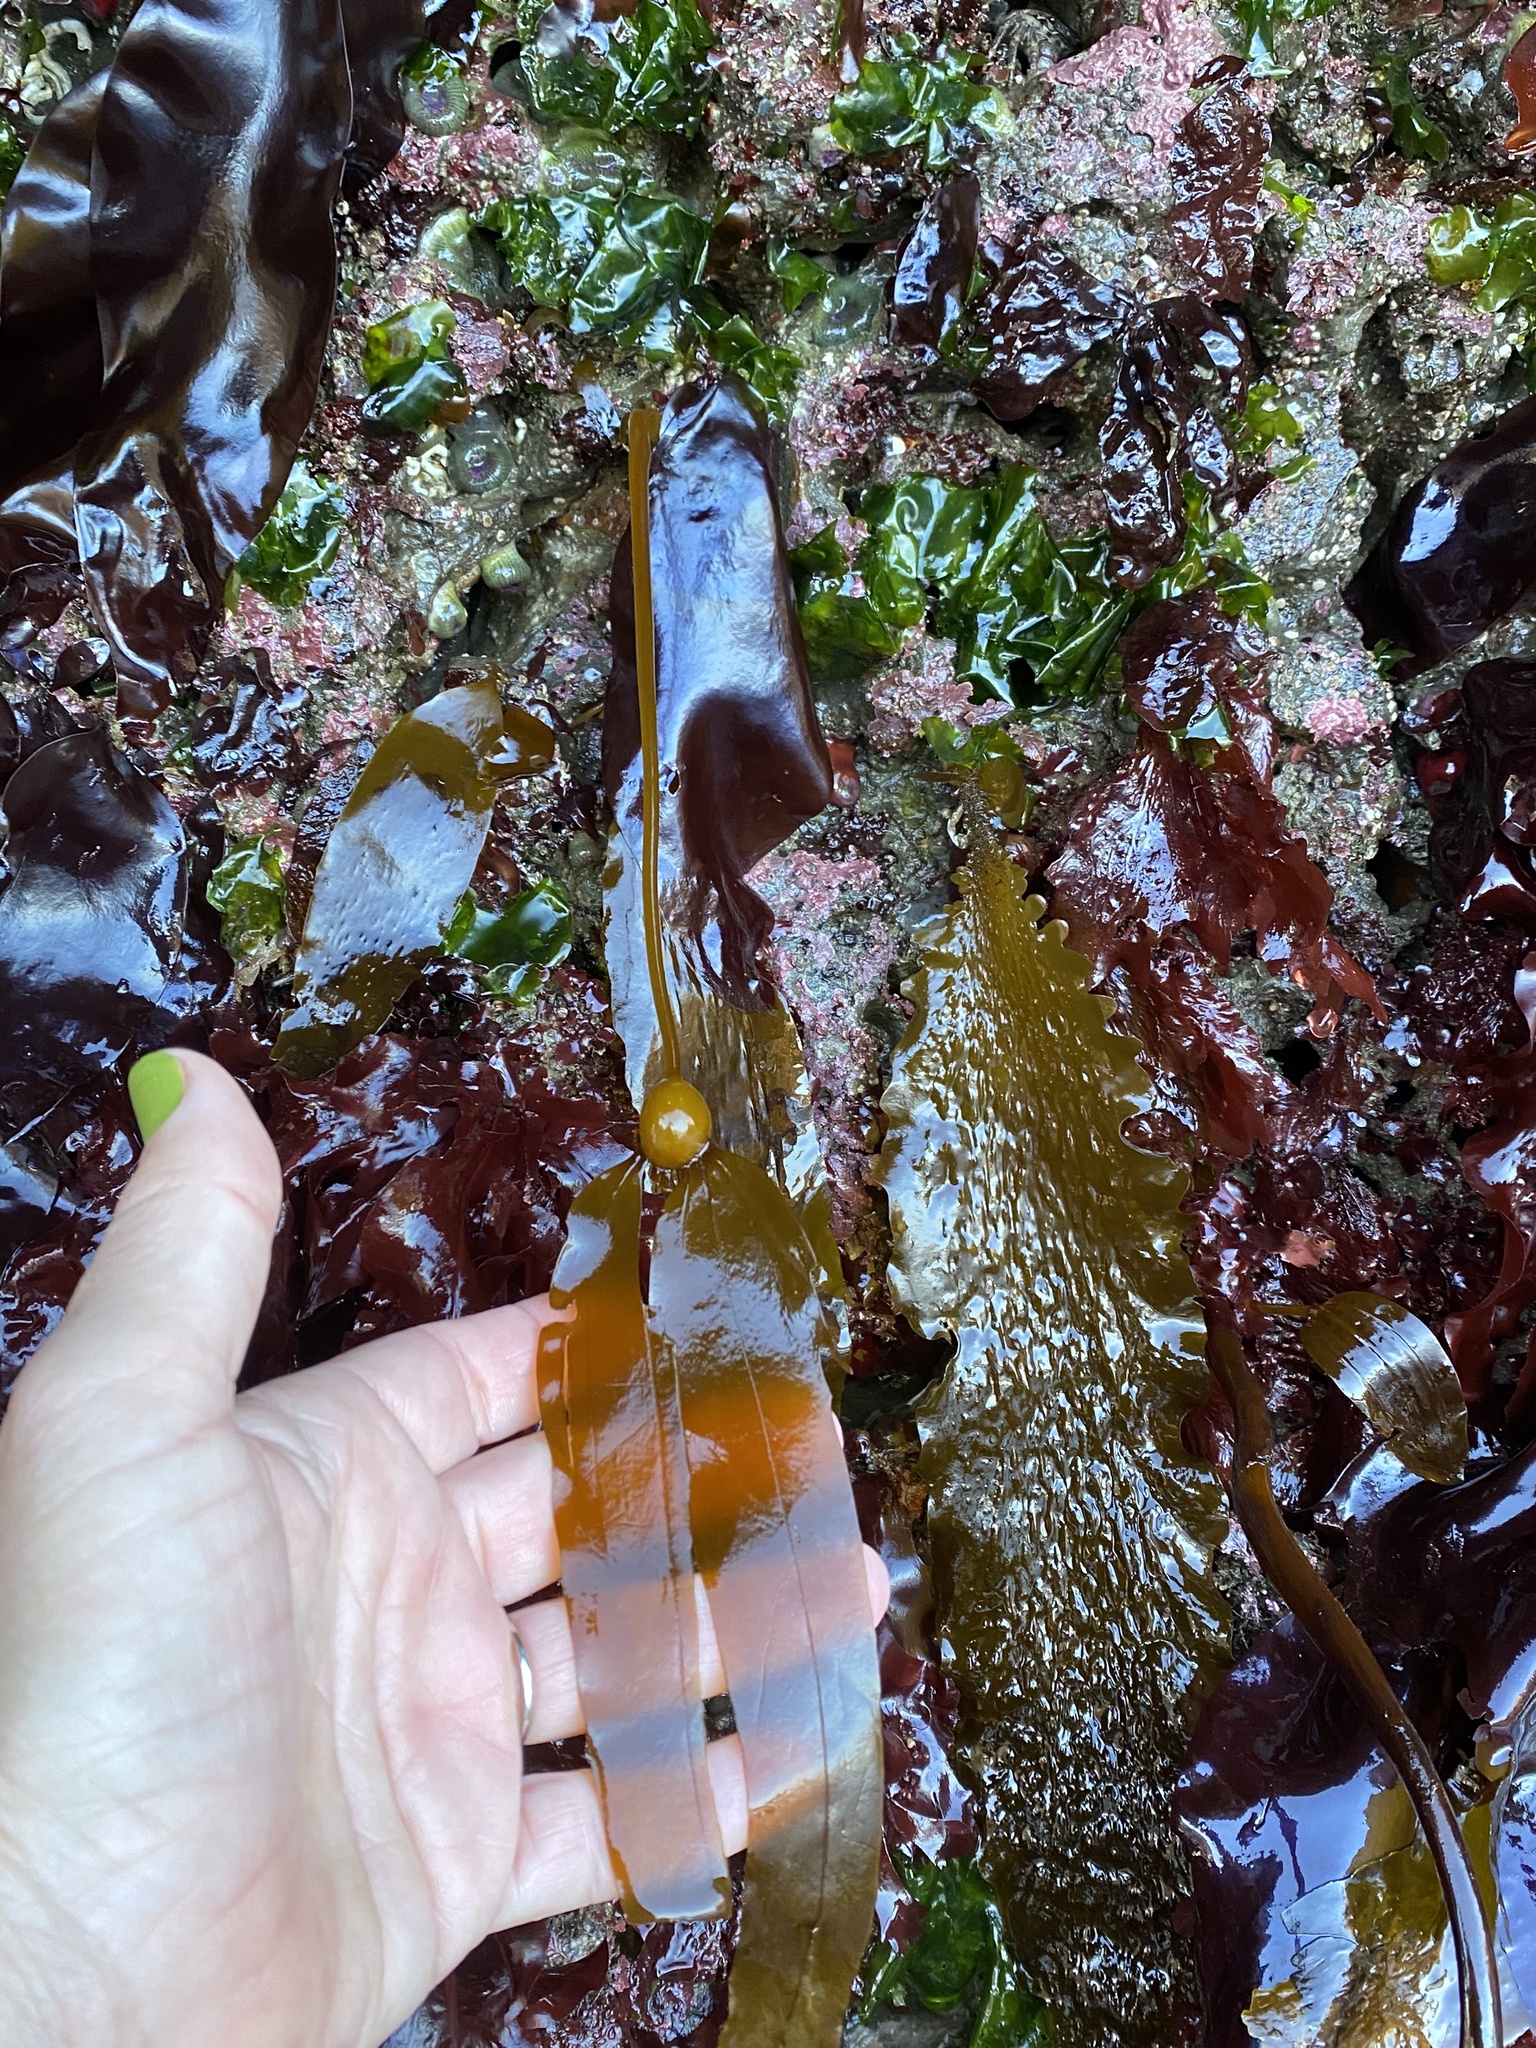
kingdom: Chromista
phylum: Ochrophyta
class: Phaeophyceae
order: Laminariales
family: Laminariaceae
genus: Nereocystis
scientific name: Nereocystis luetkeana
